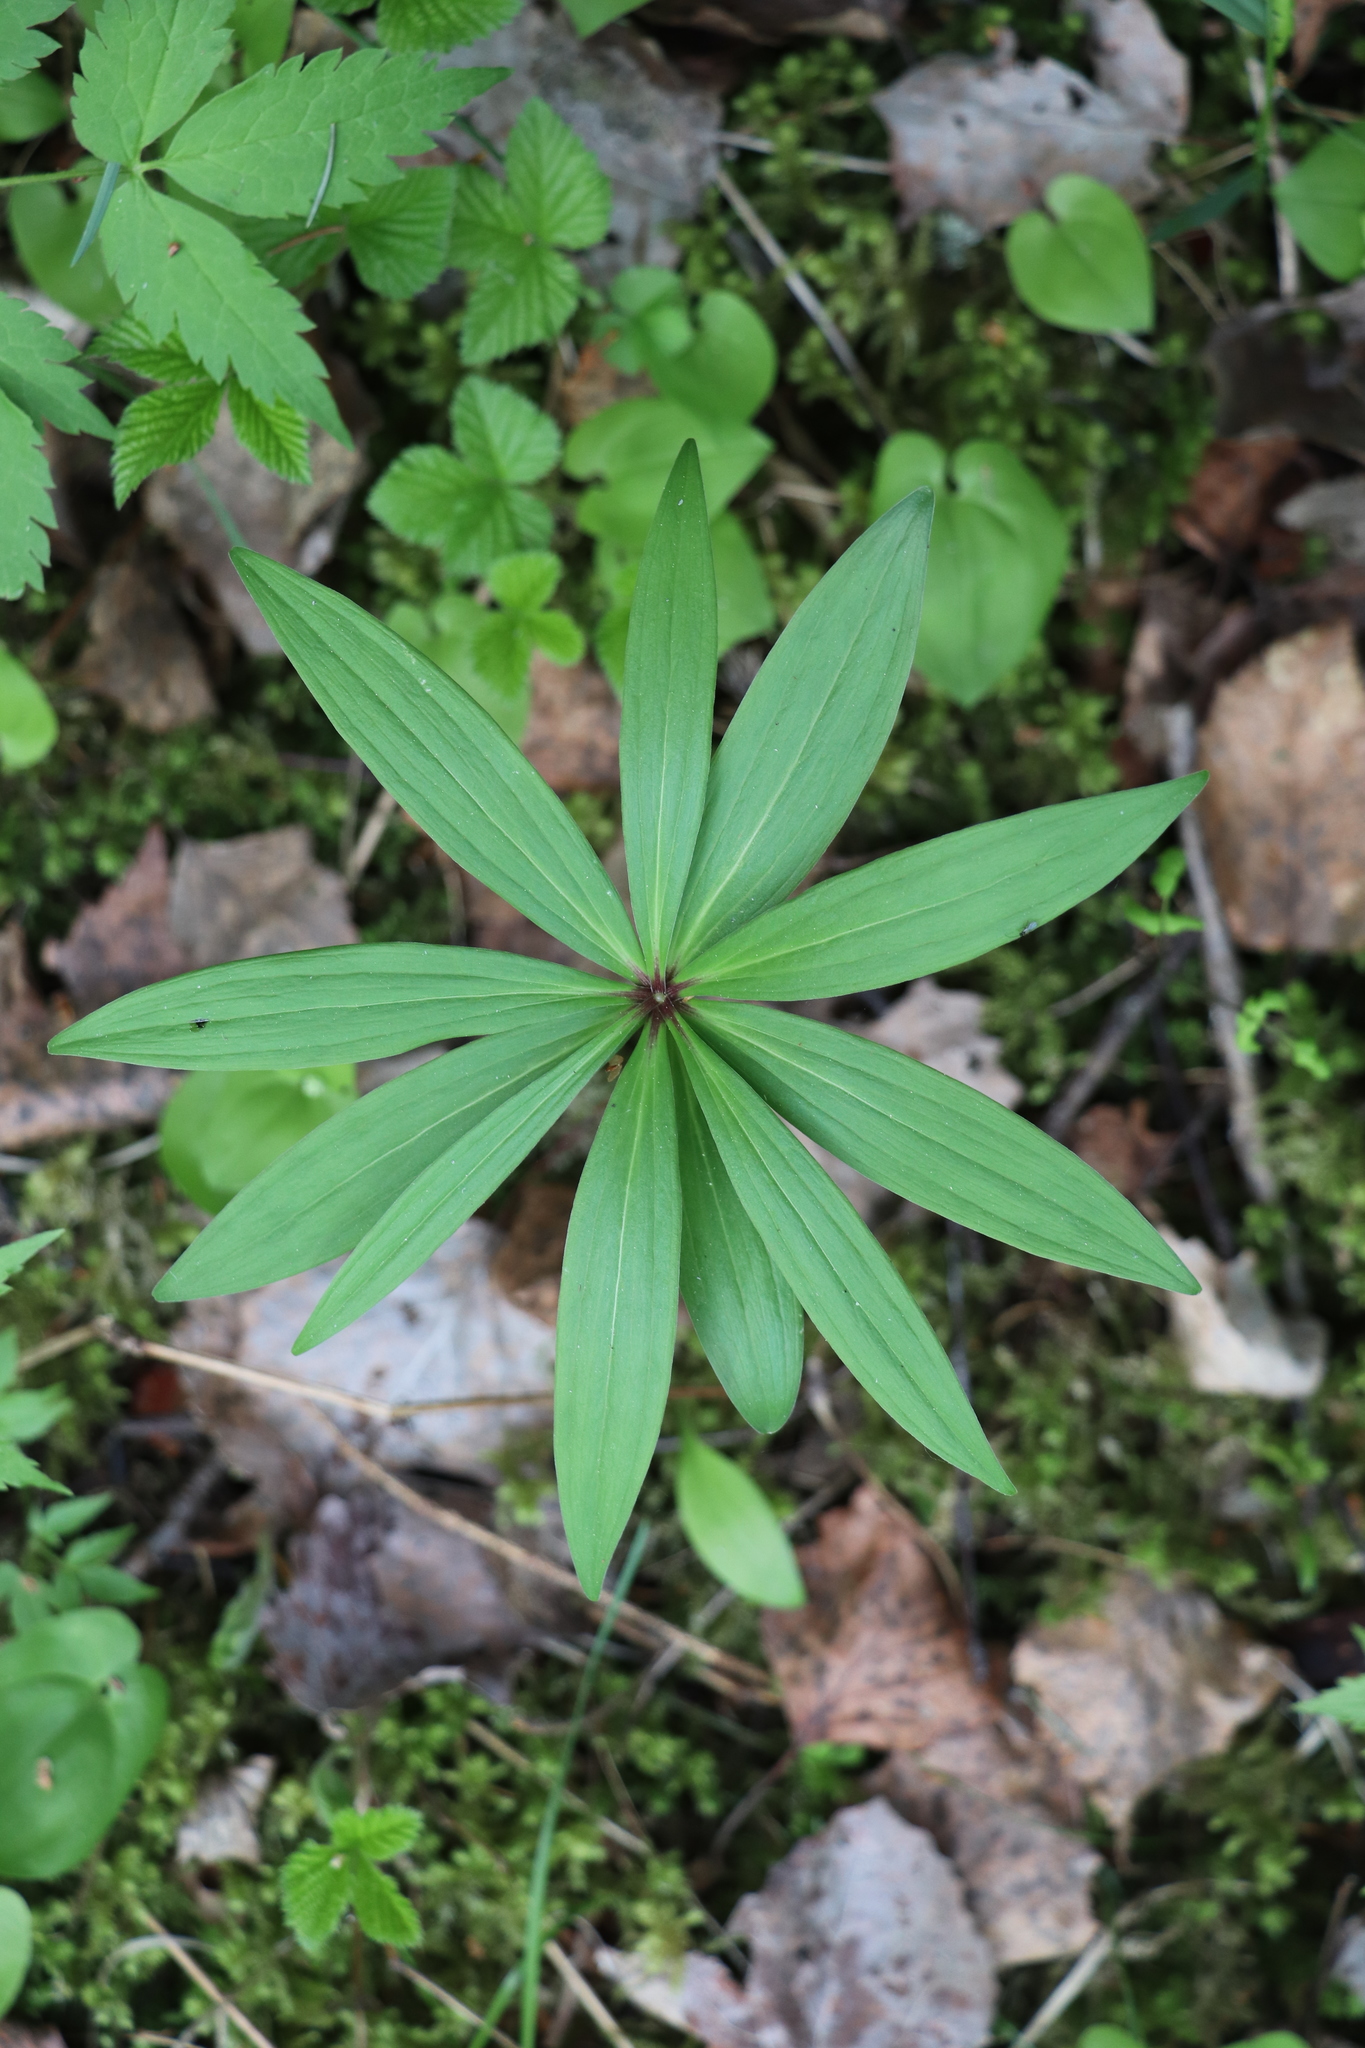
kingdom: Plantae
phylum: Tracheophyta
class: Liliopsida
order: Liliales
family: Liliaceae
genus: Lilium
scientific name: Lilium martagon
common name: Martagon lily
